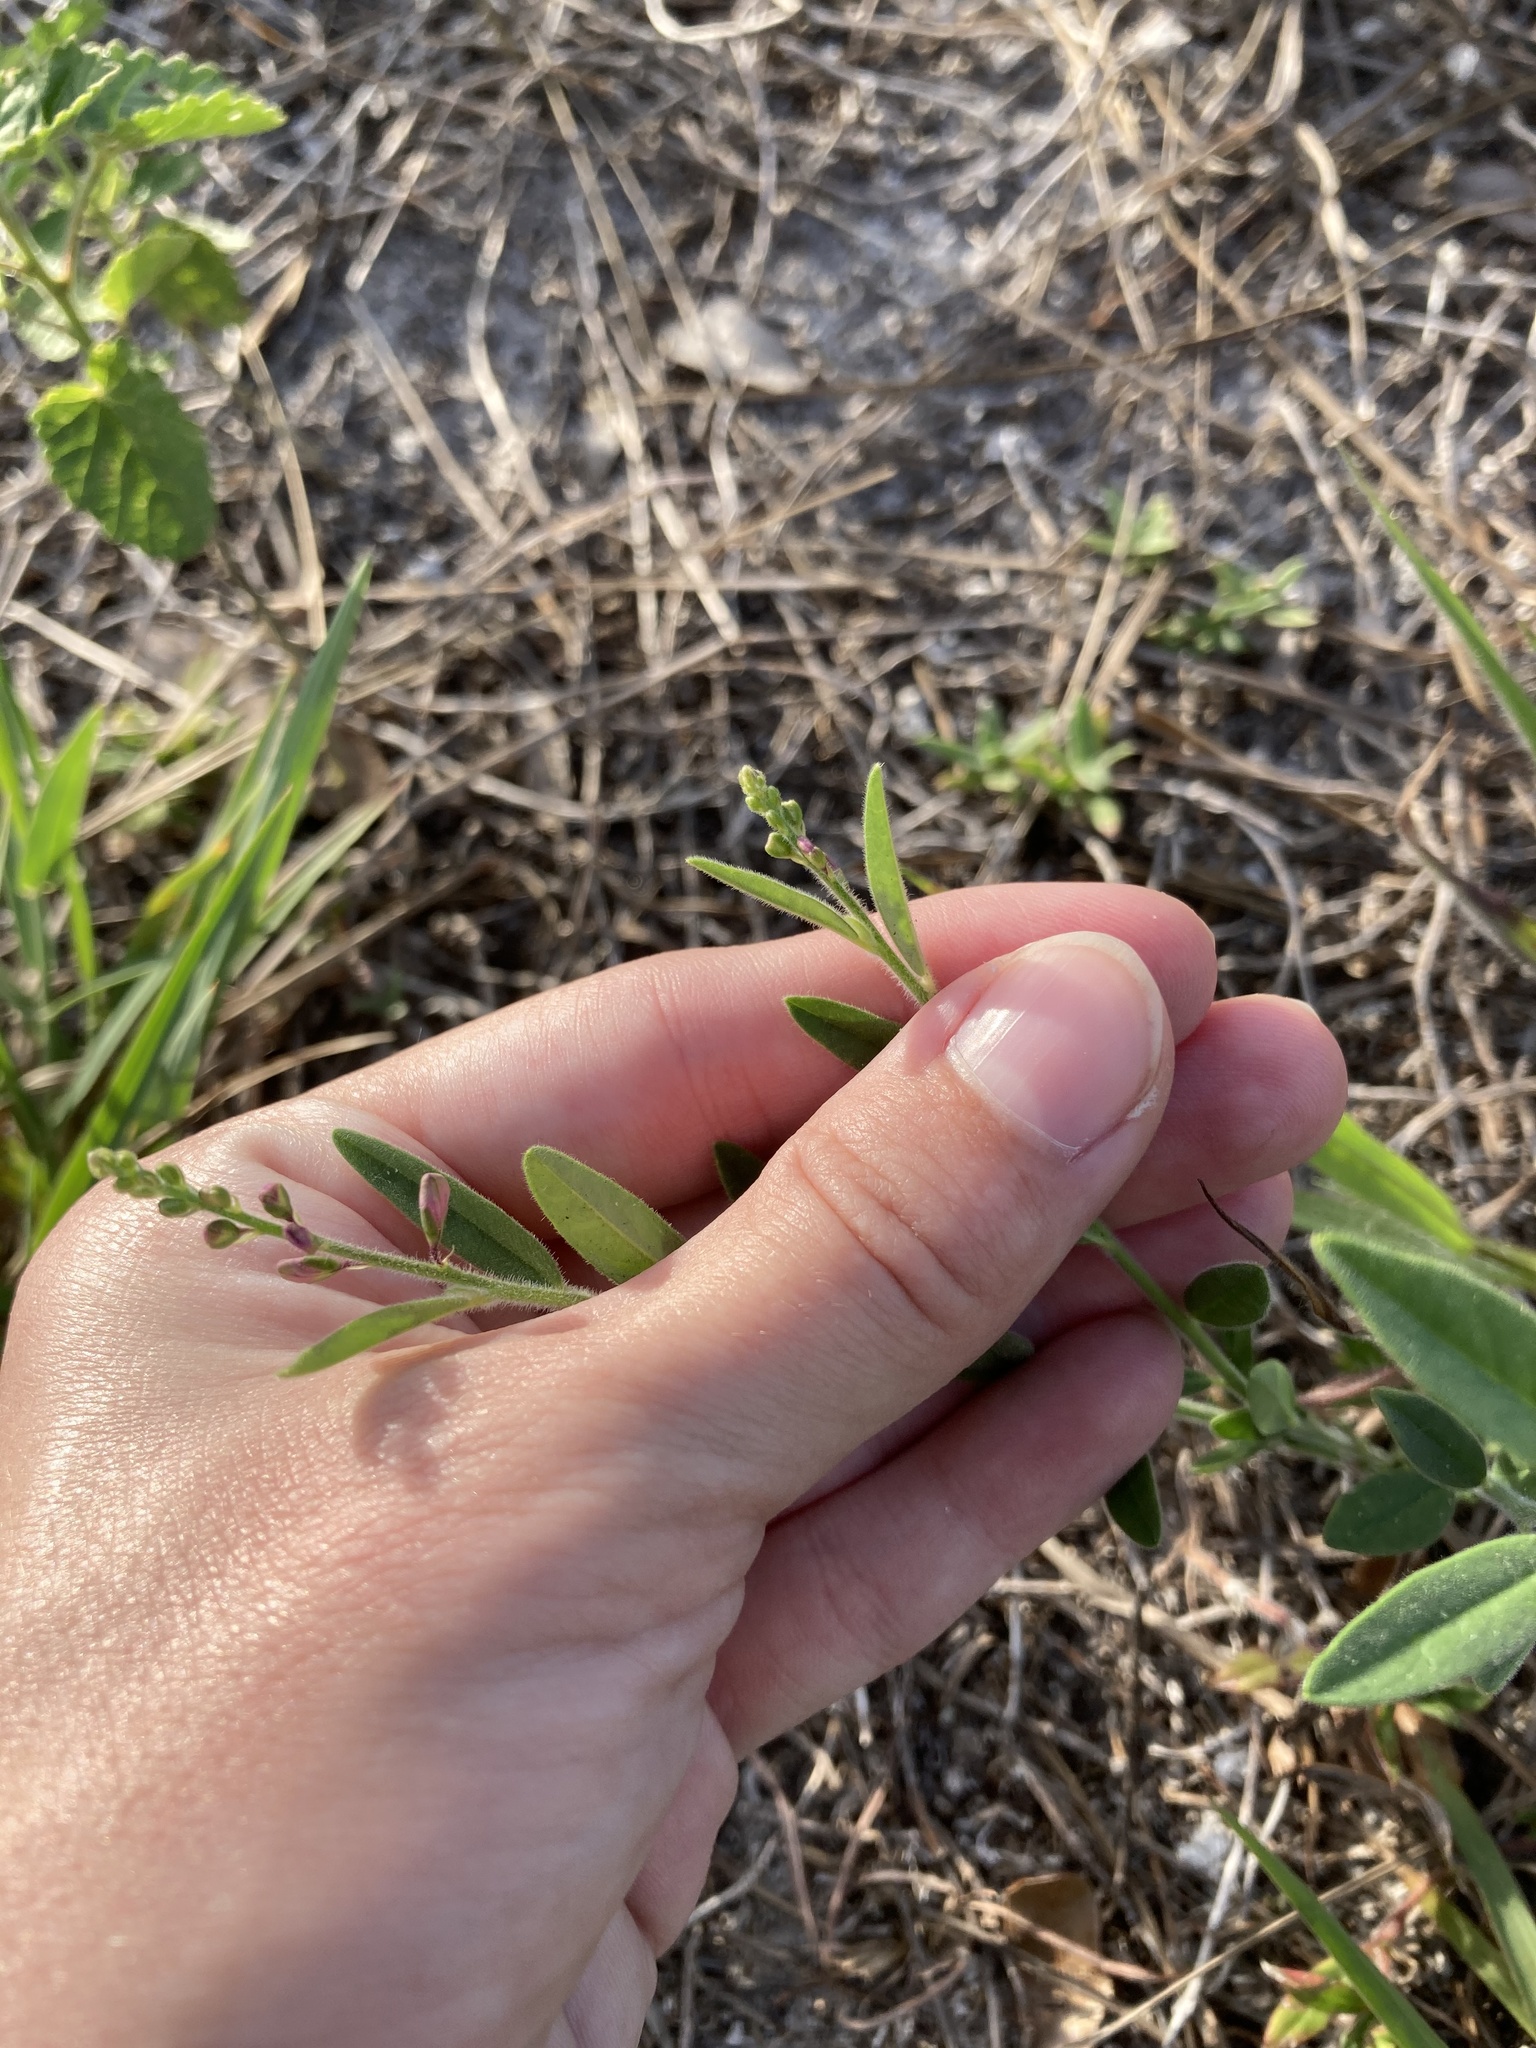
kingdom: Plantae
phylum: Tracheophyta
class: Magnoliopsida
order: Fabales
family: Polygalaceae
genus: Asemeia
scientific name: Asemeia grandiflora
